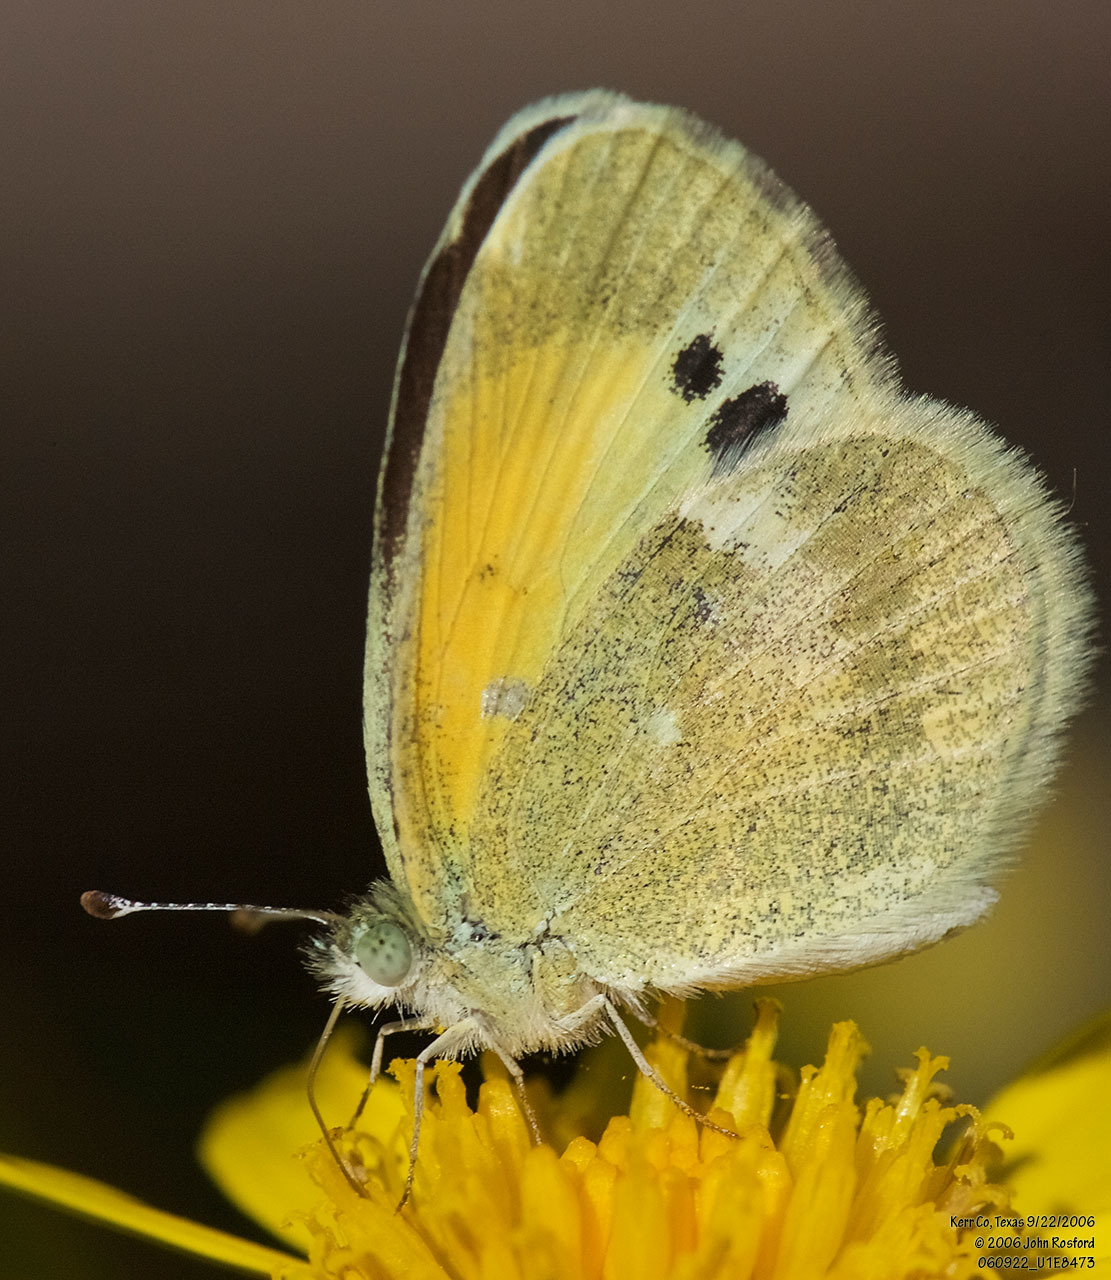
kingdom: Animalia
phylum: Arthropoda
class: Insecta
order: Lepidoptera
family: Pieridae
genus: Nathalis
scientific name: Nathalis iole
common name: Dainty sulphur
